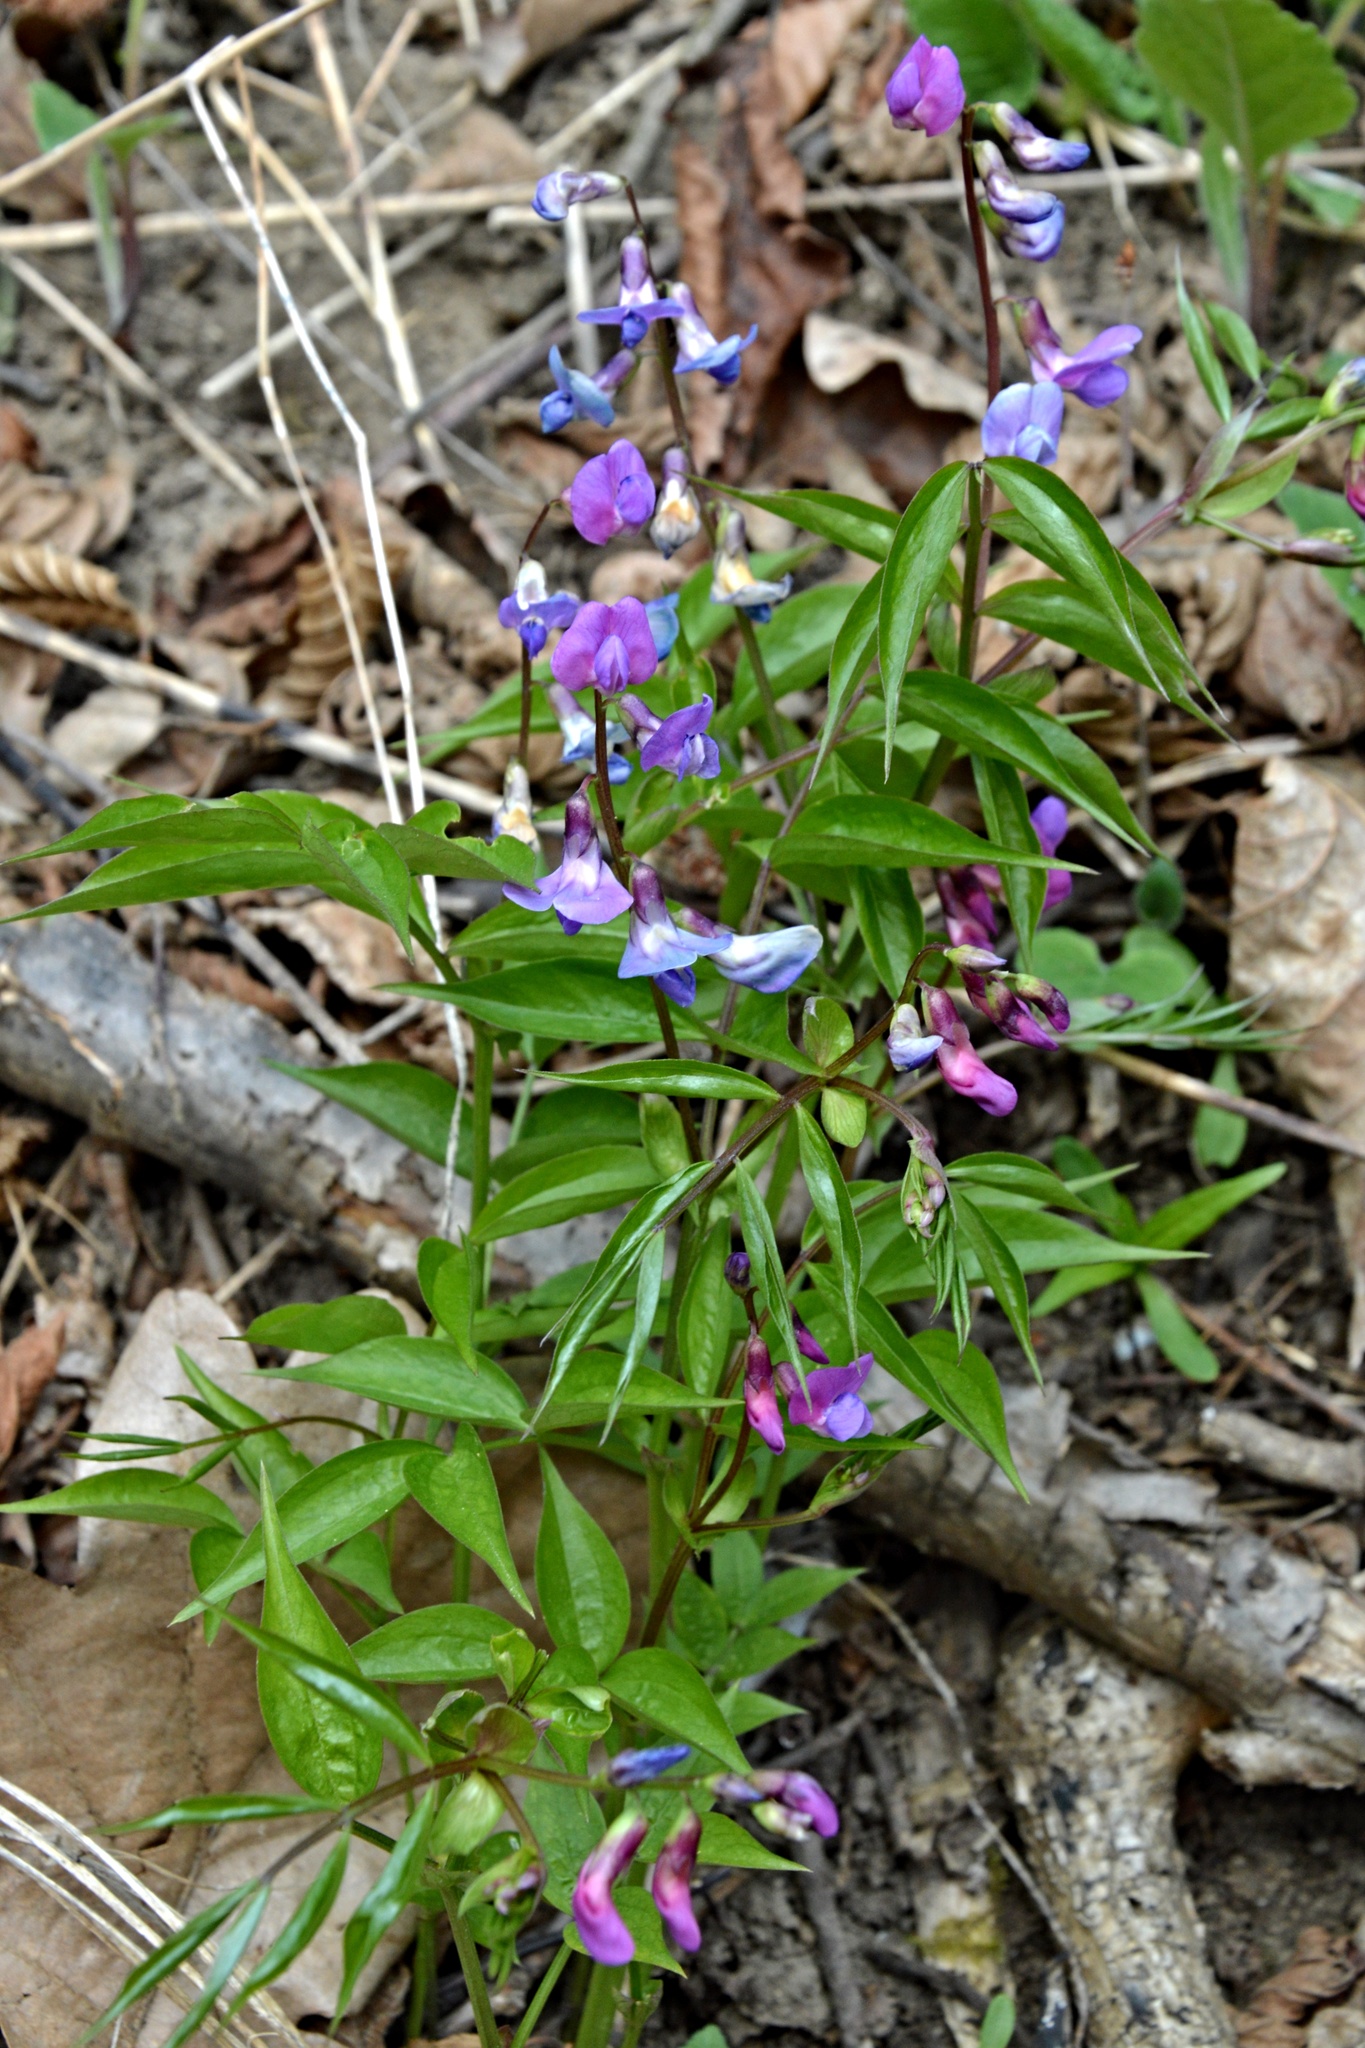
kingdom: Plantae
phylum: Tracheophyta
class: Magnoliopsida
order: Fabales
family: Fabaceae
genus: Lathyrus
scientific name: Lathyrus vernus
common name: Spring pea
